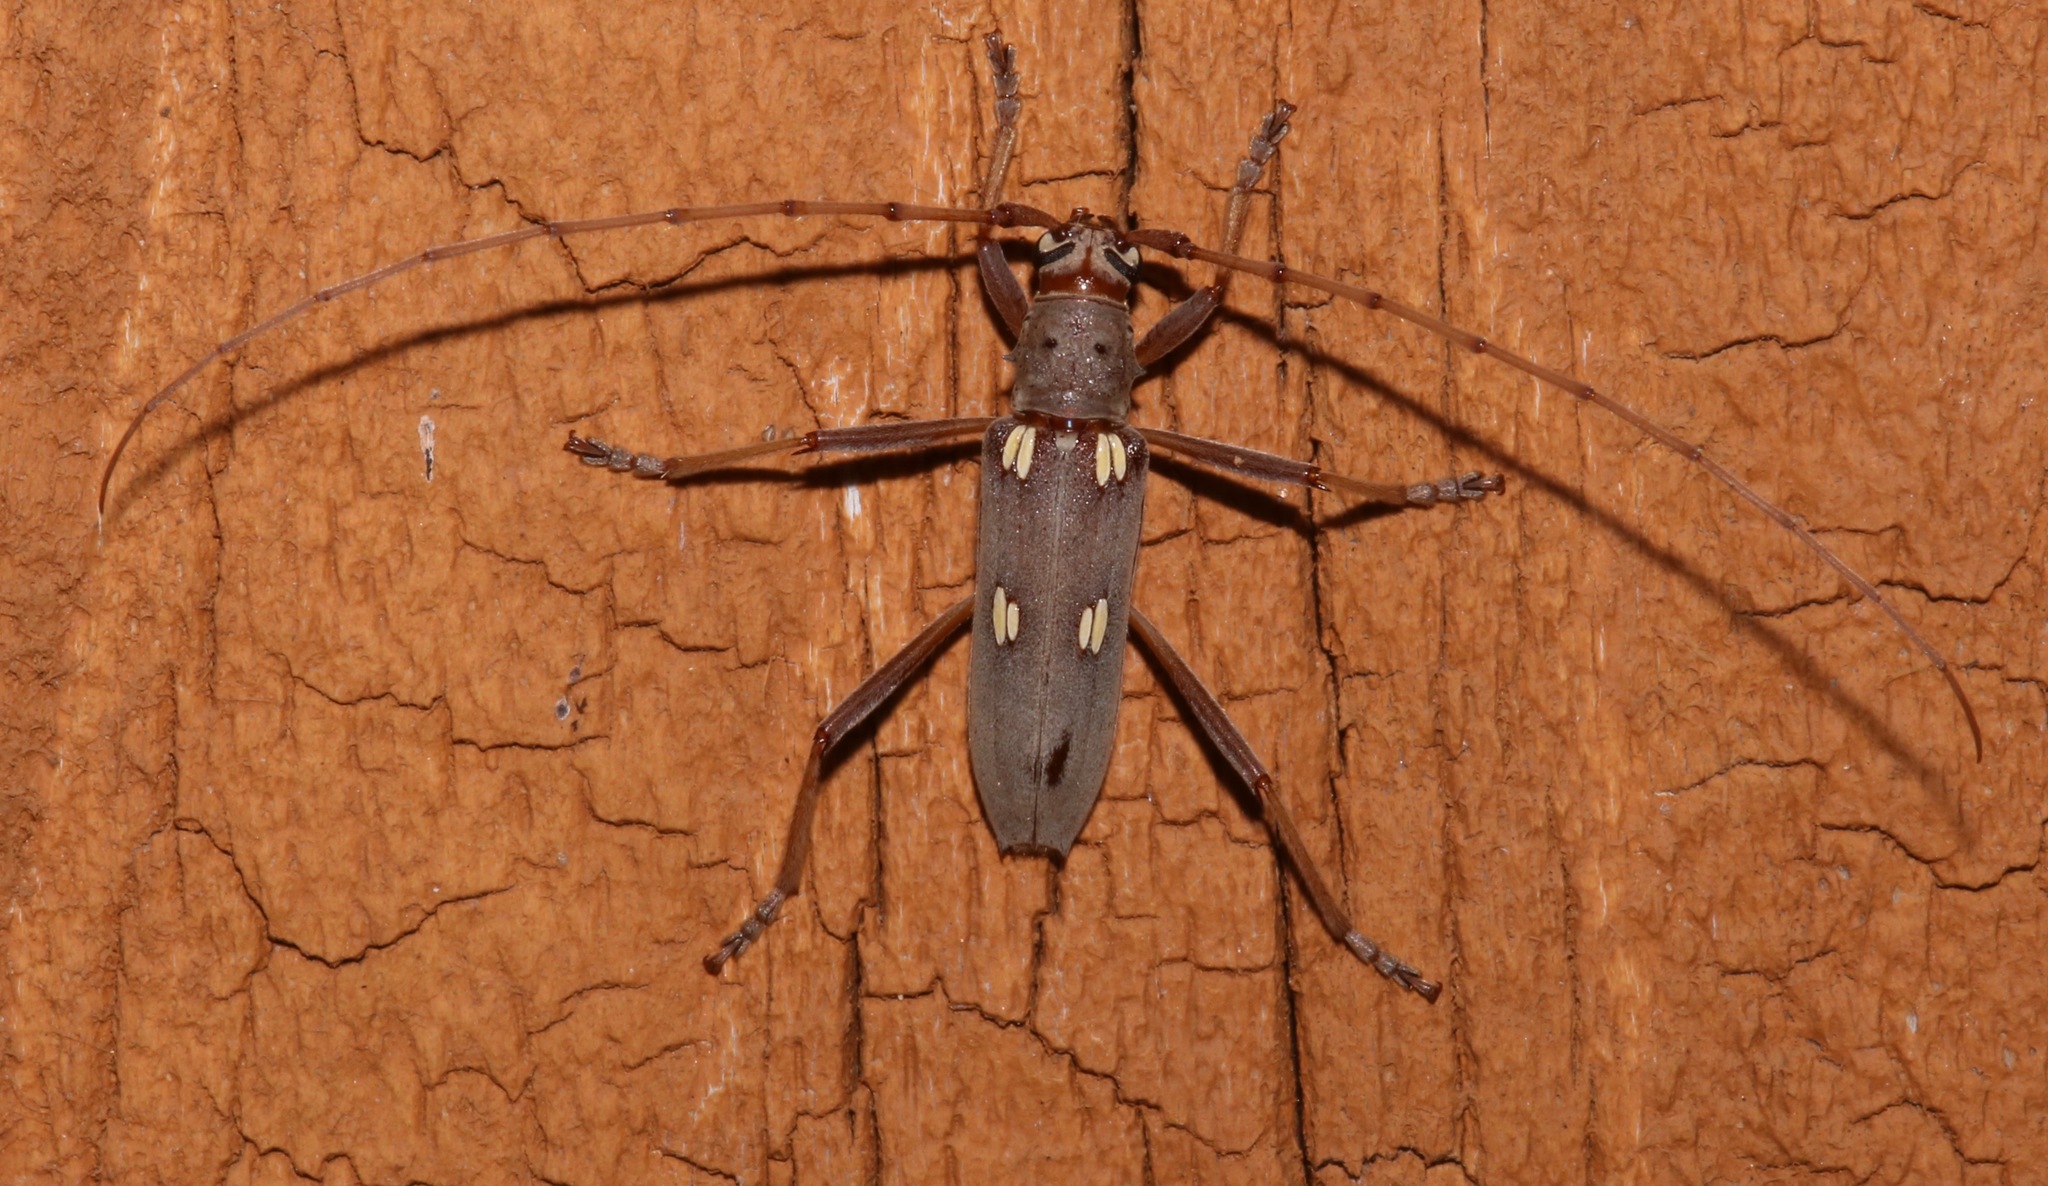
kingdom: Animalia
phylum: Arthropoda
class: Insecta
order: Coleoptera
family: Cerambycidae
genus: Eburia
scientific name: Eburia distincta
